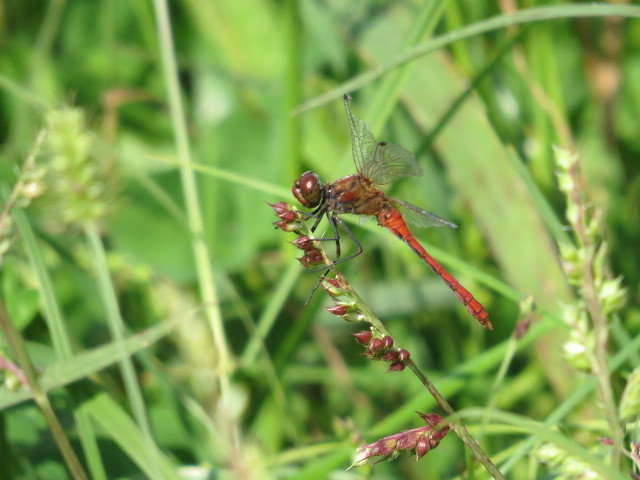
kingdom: Animalia
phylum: Arthropoda
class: Insecta
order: Odonata
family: Libellulidae
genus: Sympetrum
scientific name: Sympetrum sanguineum
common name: Ruddy darter
